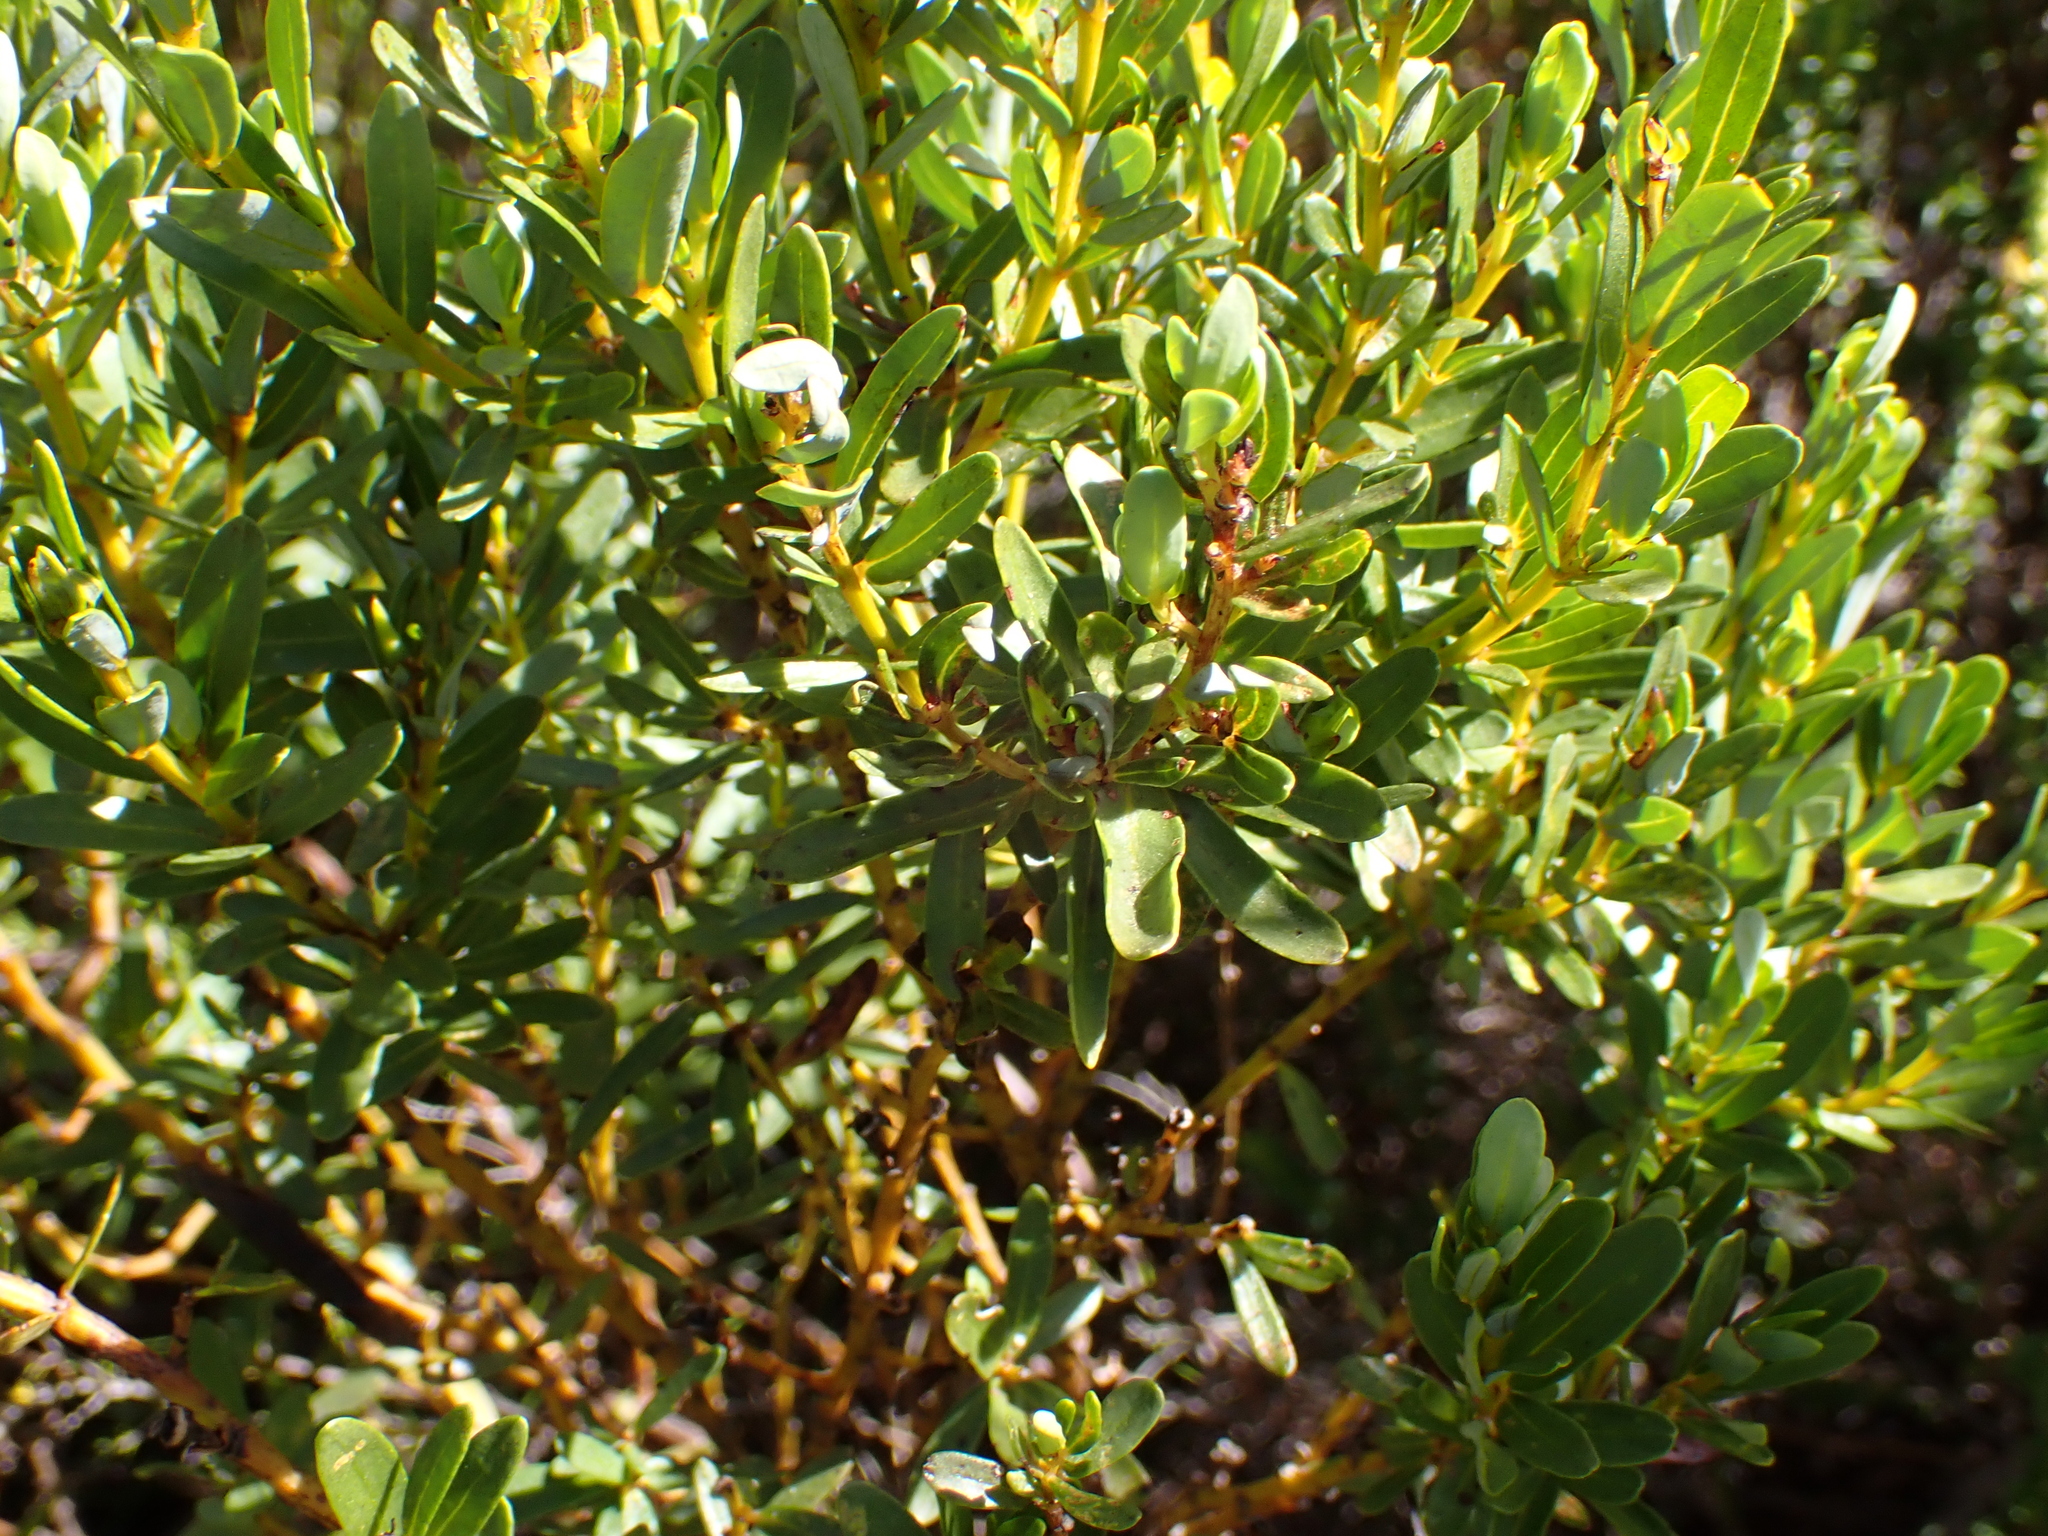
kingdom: Plantae
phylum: Tracheophyta
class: Magnoliopsida
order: Fabales
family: Fabaceae
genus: Cyclopia
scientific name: Cyclopia sessiliflora
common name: Heidelberg tea
